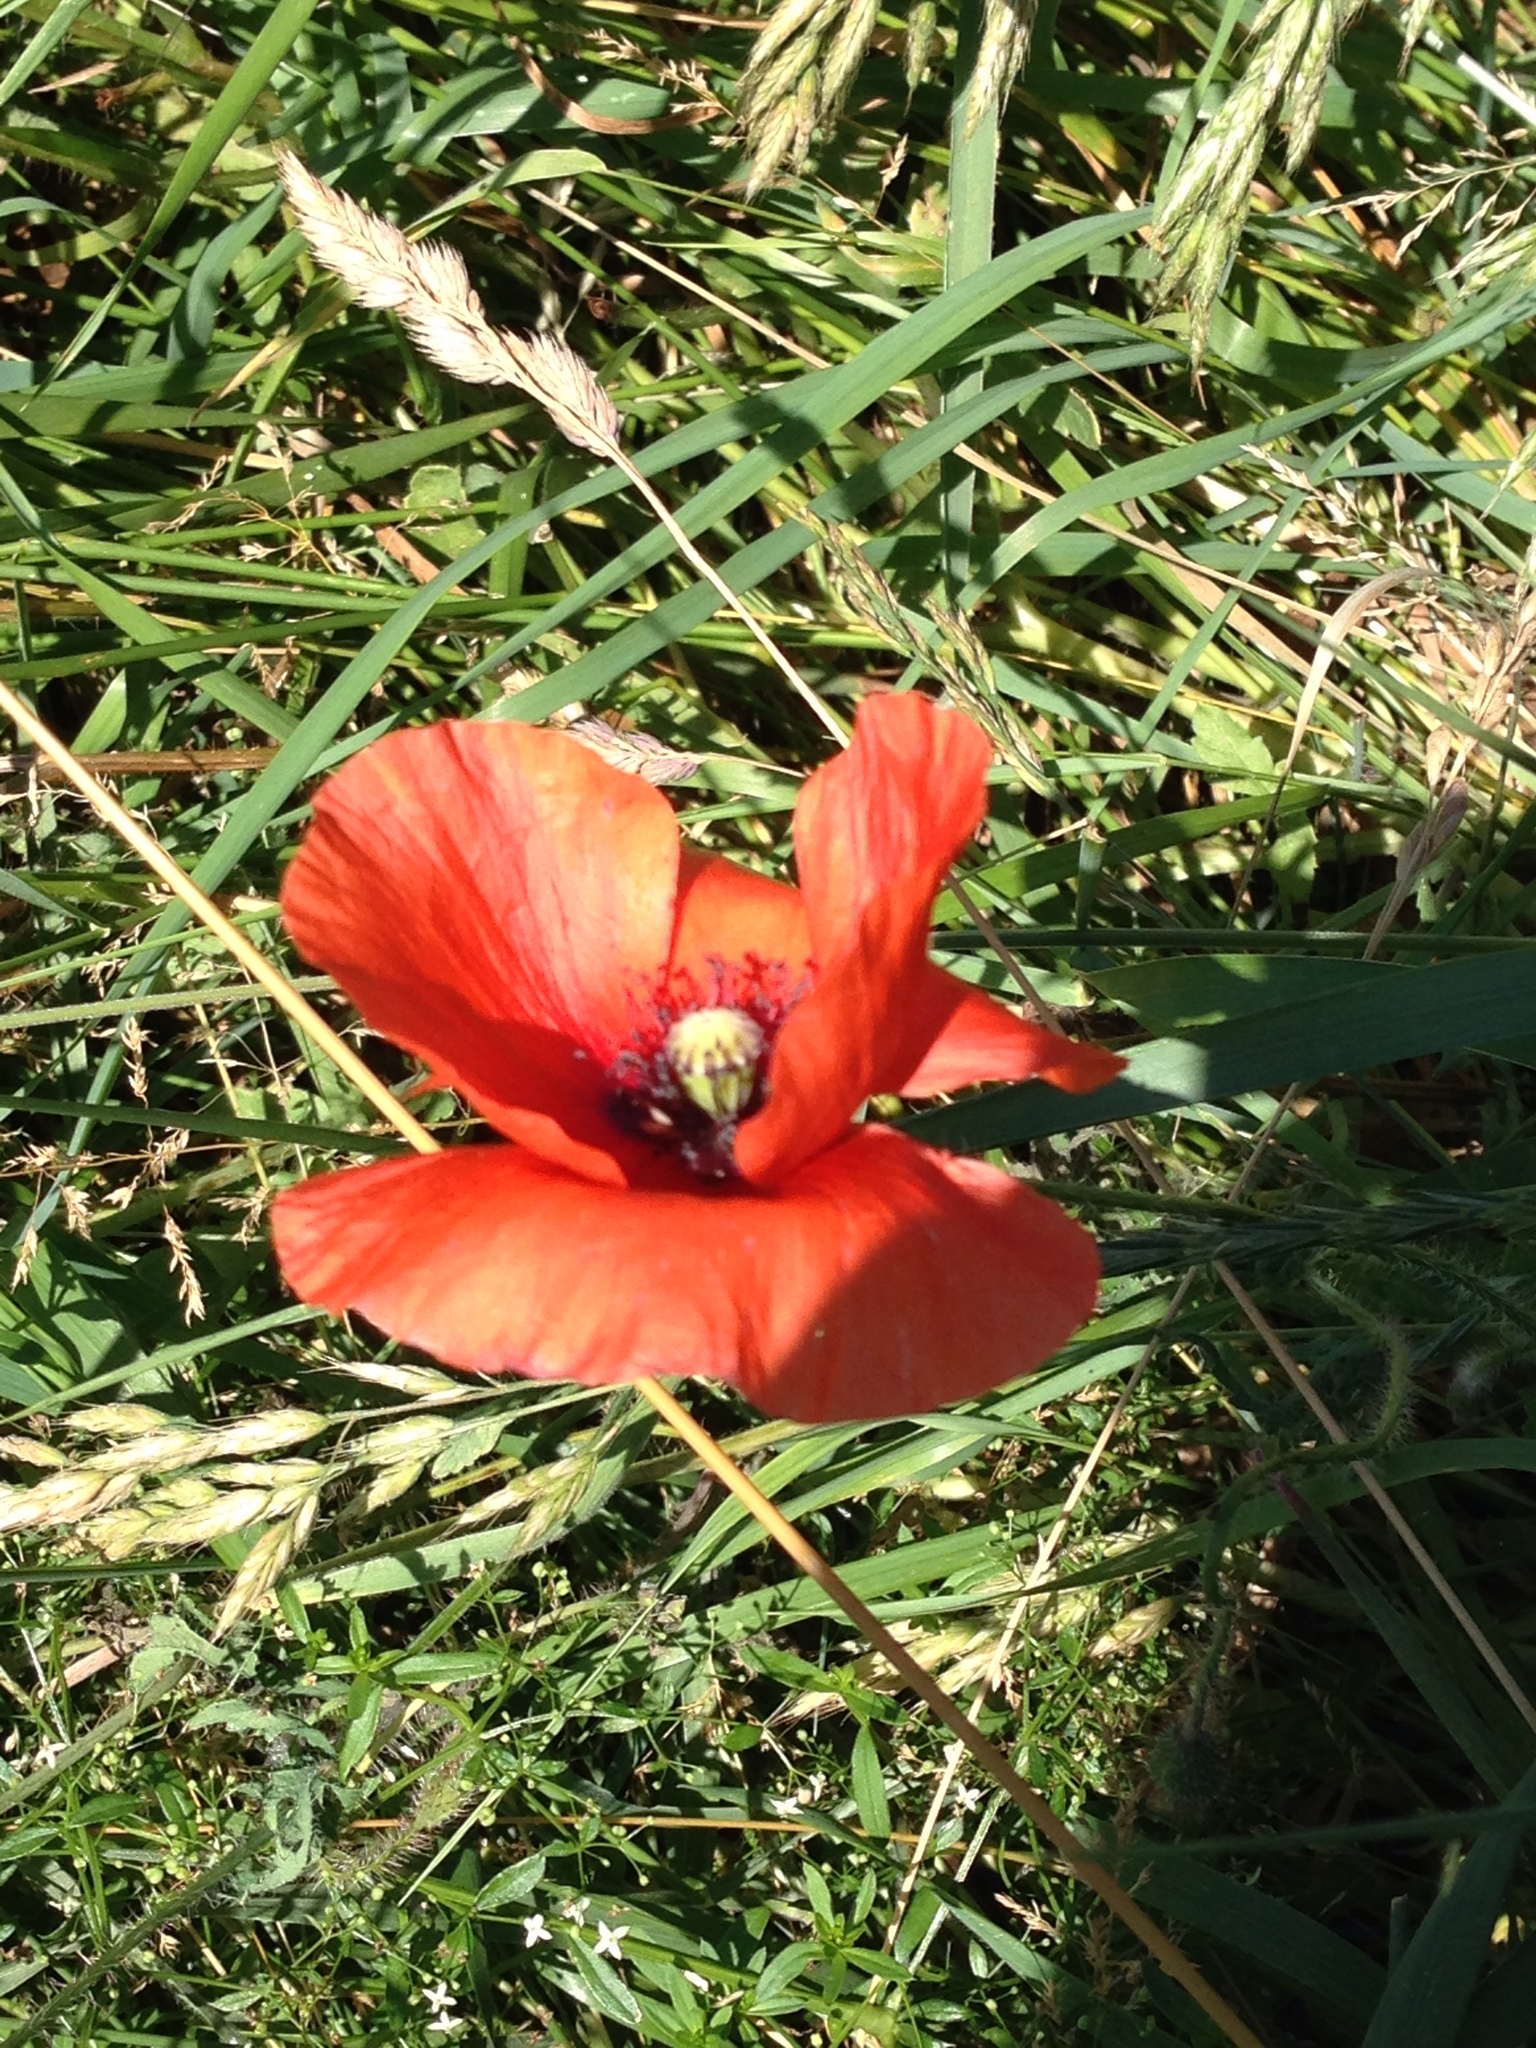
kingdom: Plantae
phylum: Tracheophyta
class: Magnoliopsida
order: Ranunculales
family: Papaveraceae
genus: Papaver
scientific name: Papaver rhoeas
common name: Corn poppy
